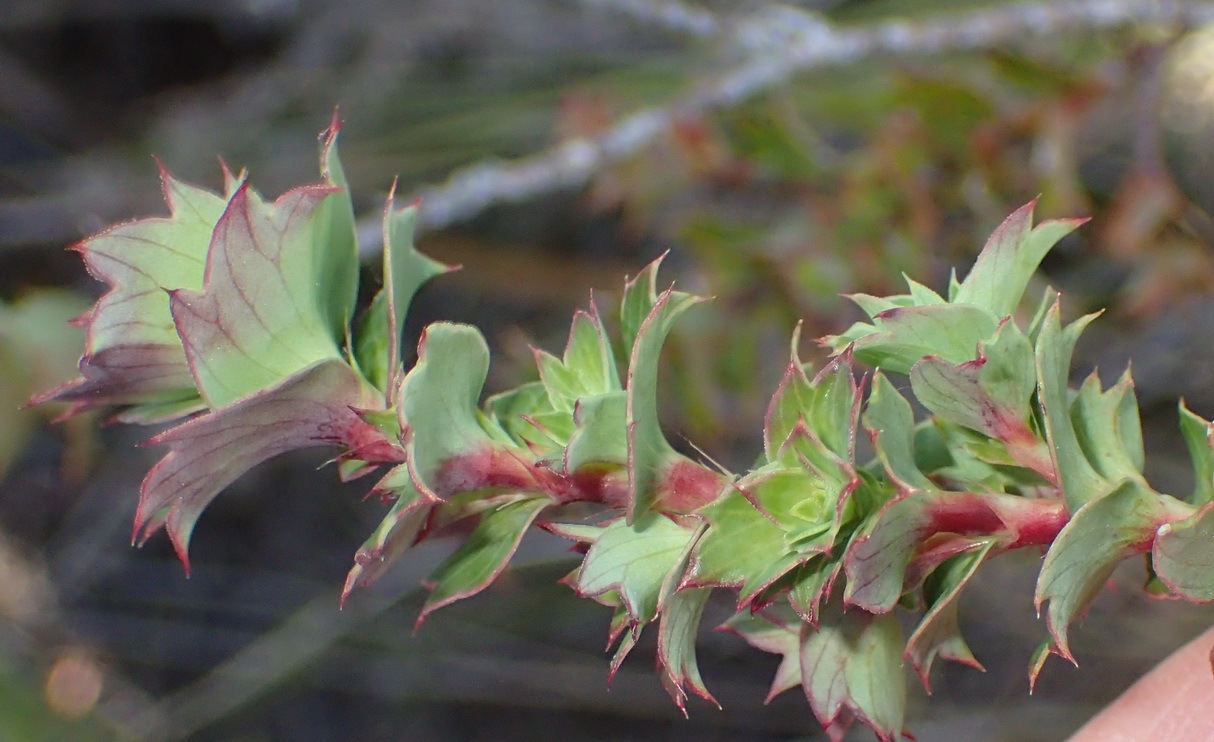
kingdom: Plantae
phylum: Tracheophyta
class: Magnoliopsida
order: Rosales
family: Rosaceae
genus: Cliffortia
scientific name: Cliffortia ilicifolia
